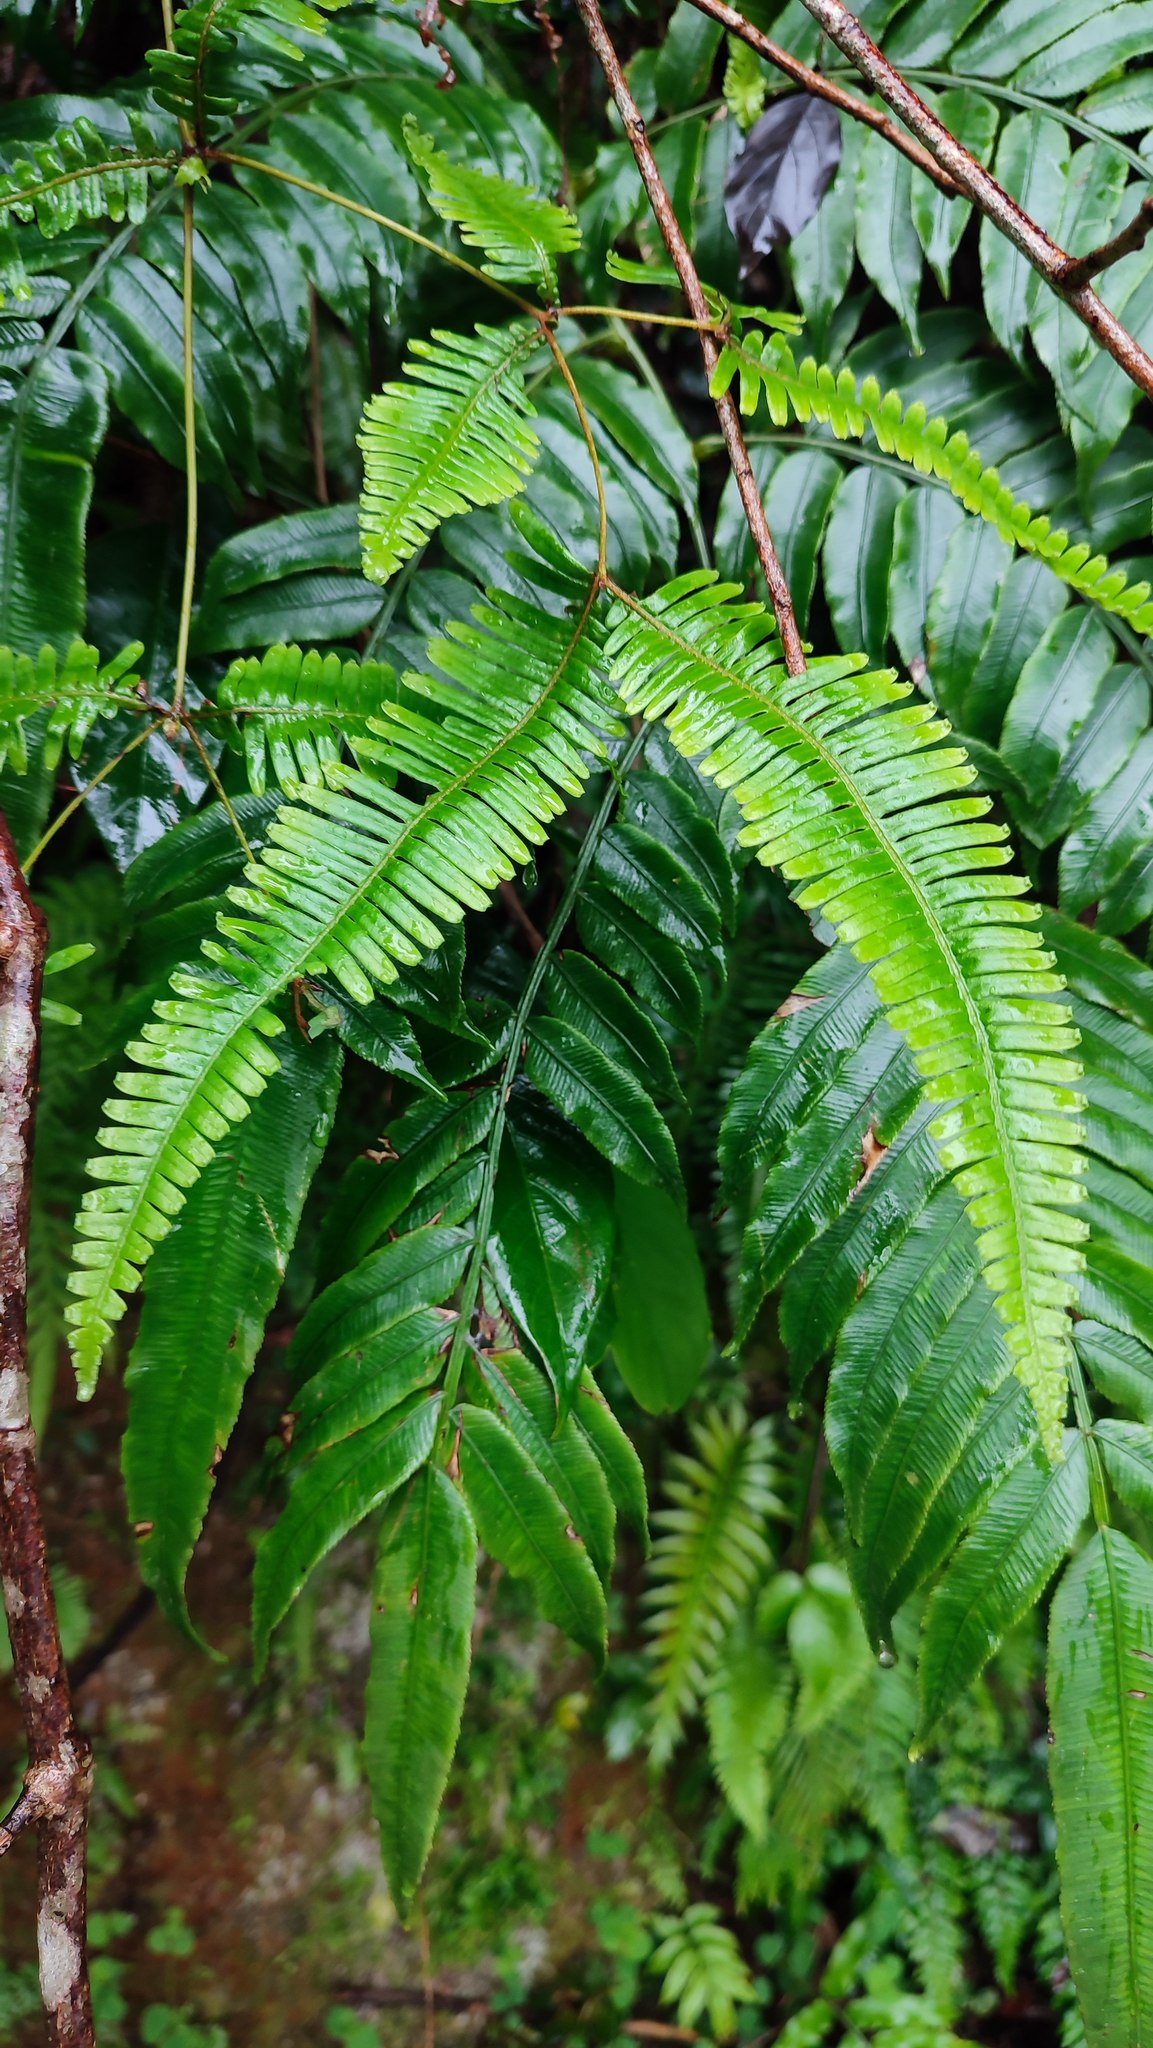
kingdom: Plantae
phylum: Tracheophyta
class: Polypodiopsida
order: Gleicheniales
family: Gleicheniaceae
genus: Dicranopteris
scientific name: Dicranopteris linearis
